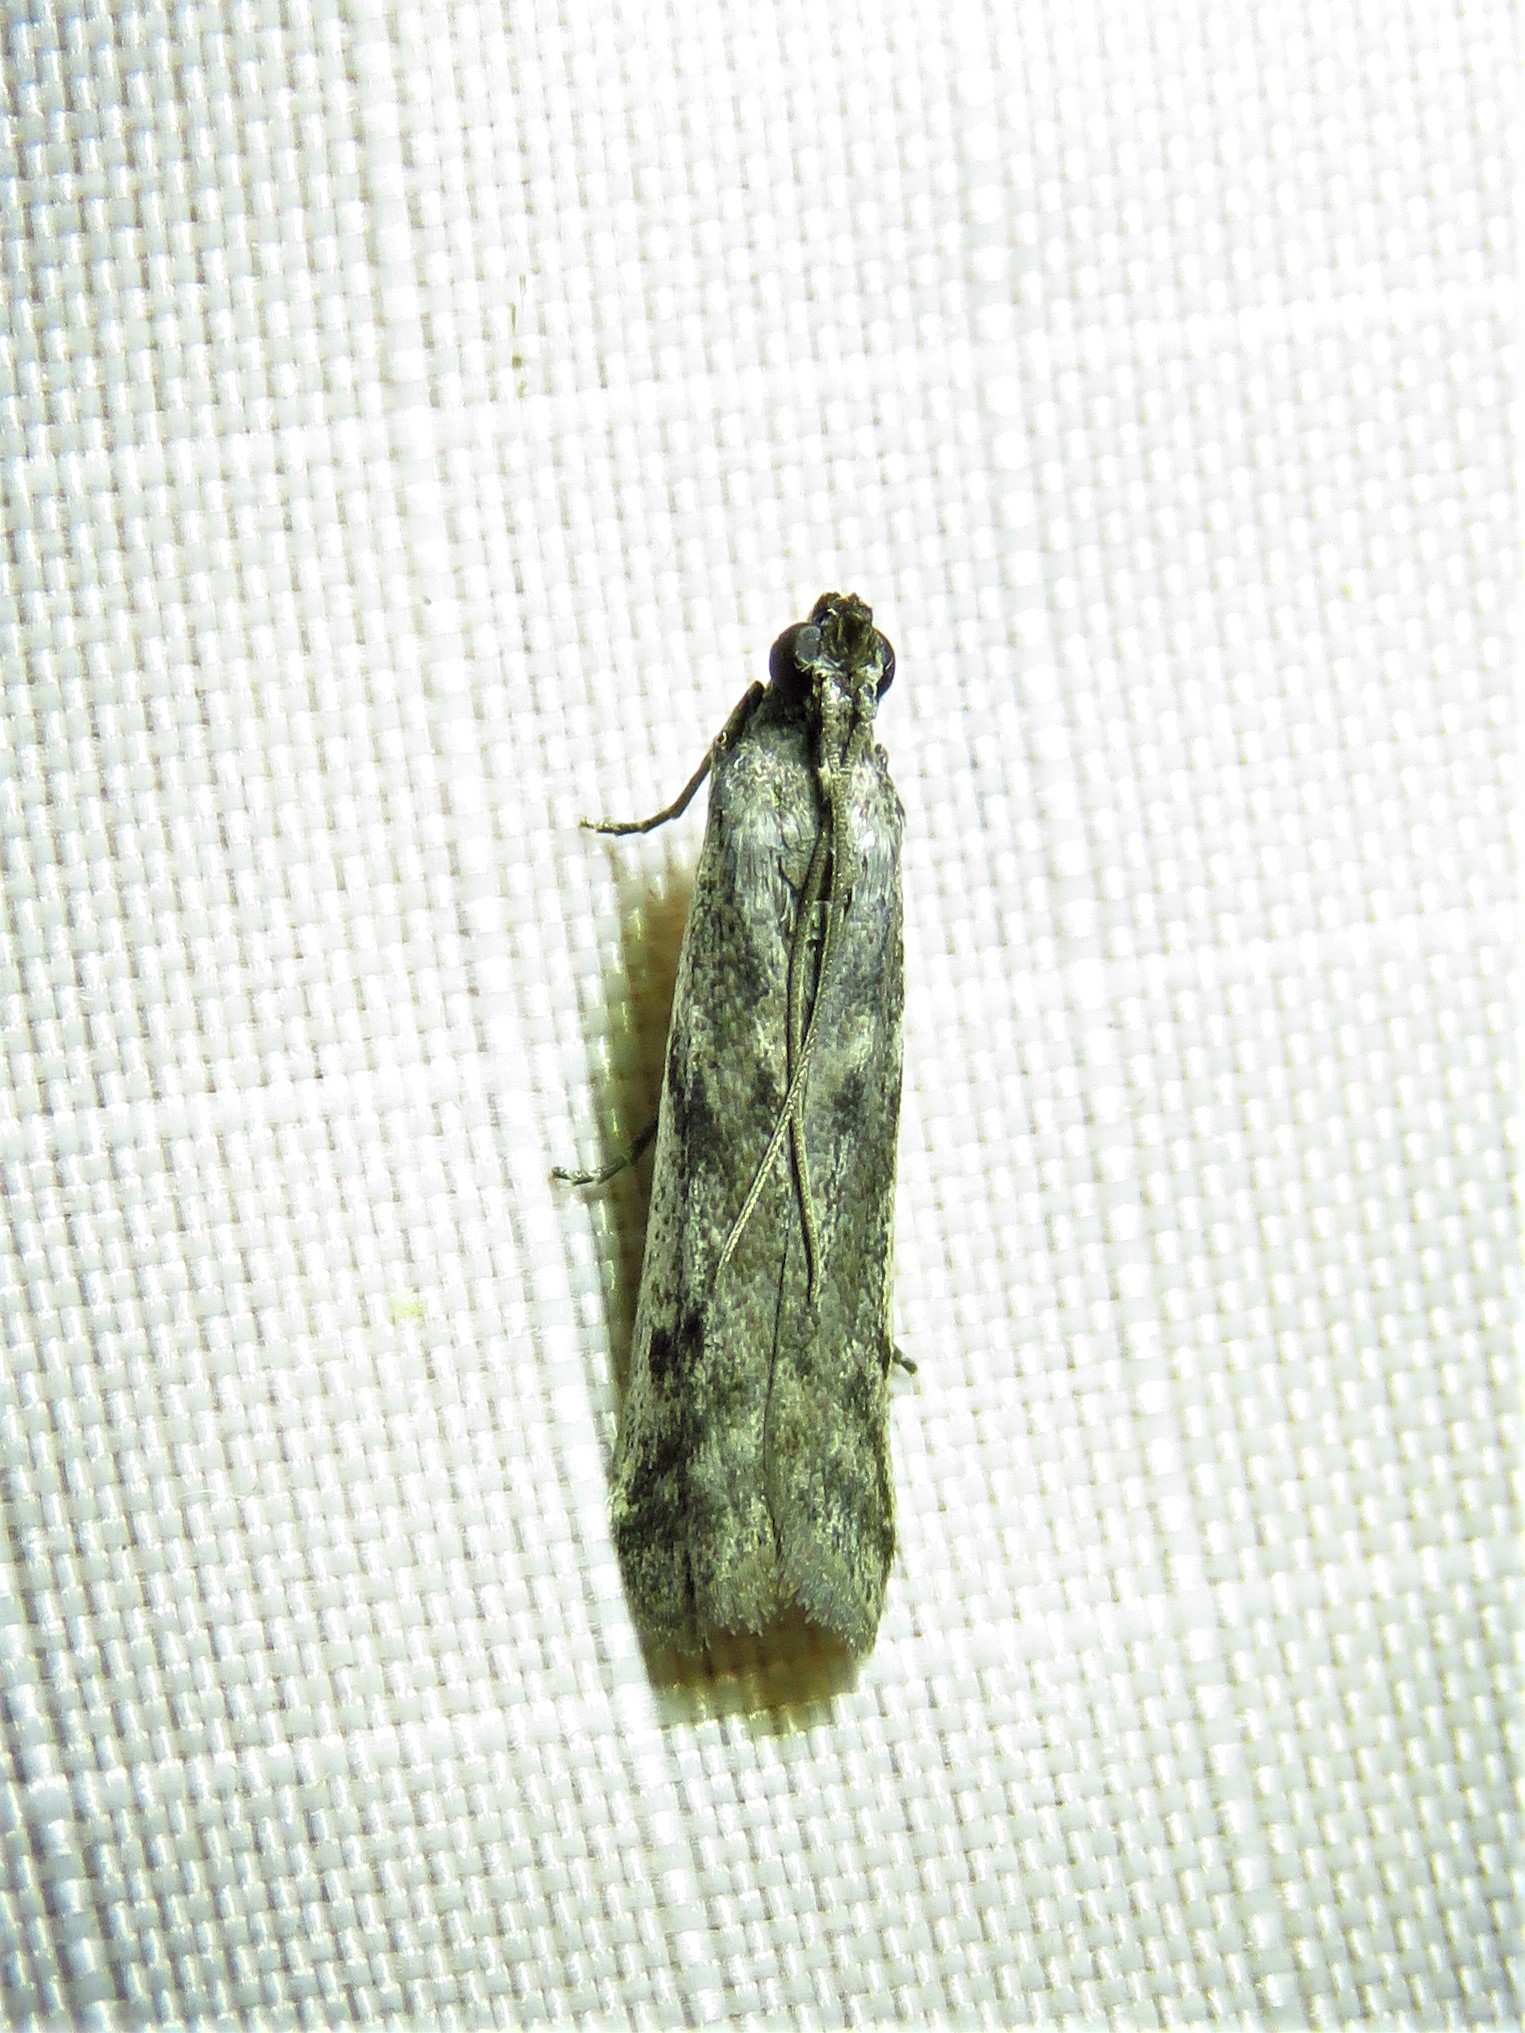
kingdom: Animalia
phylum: Arthropoda
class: Insecta
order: Lepidoptera
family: Pyralidae
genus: Phycitodes
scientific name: Phycitodes mucidellus
